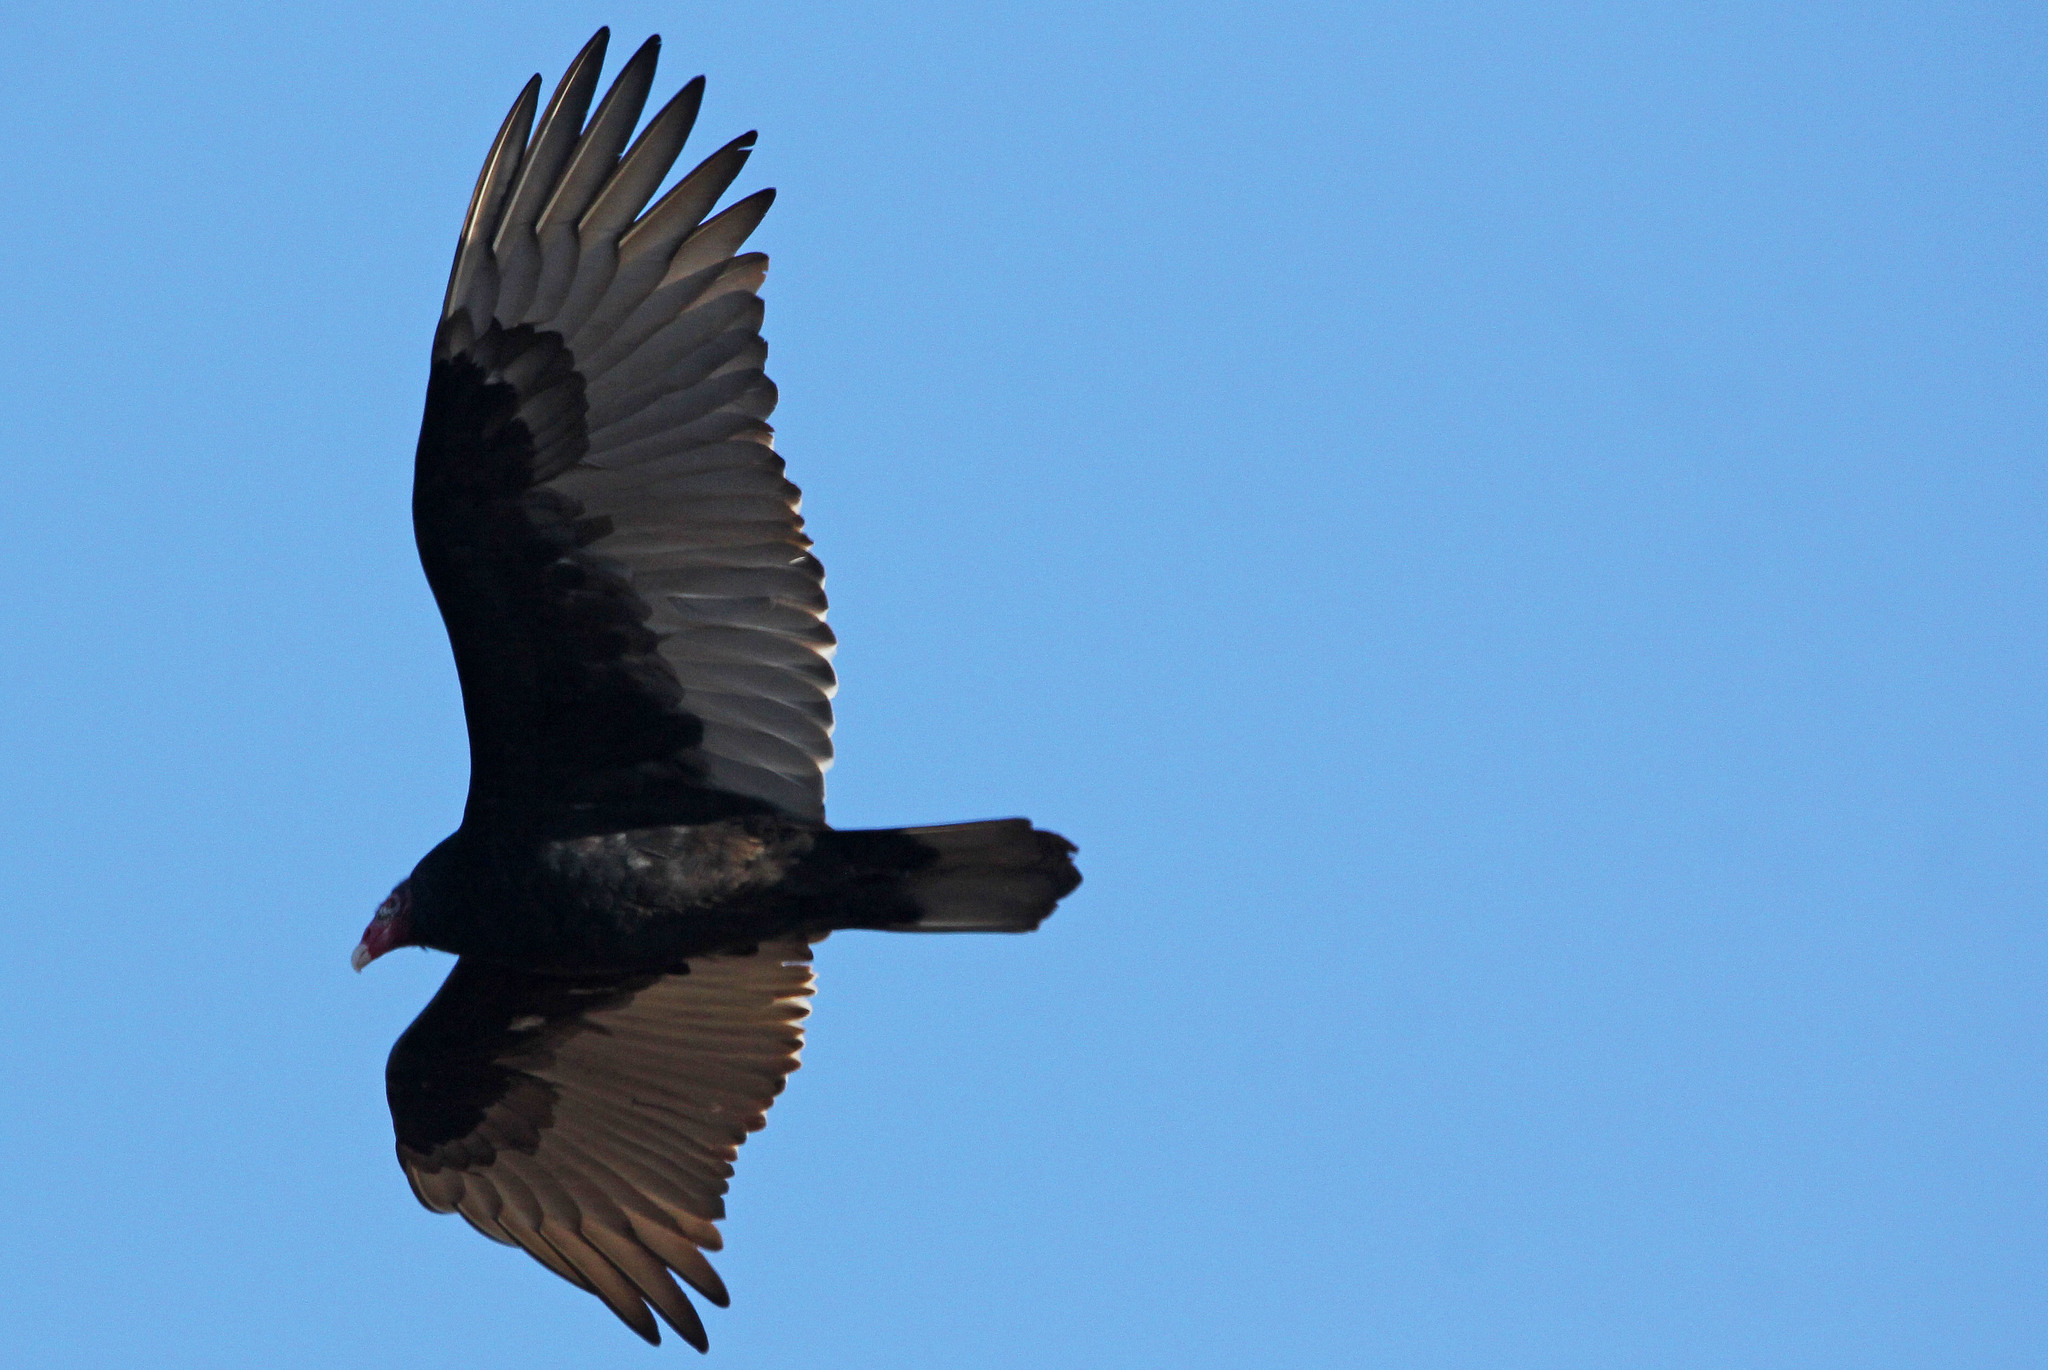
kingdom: Animalia
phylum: Chordata
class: Aves
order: Accipitriformes
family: Cathartidae
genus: Cathartes
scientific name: Cathartes aura
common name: Turkey vulture
